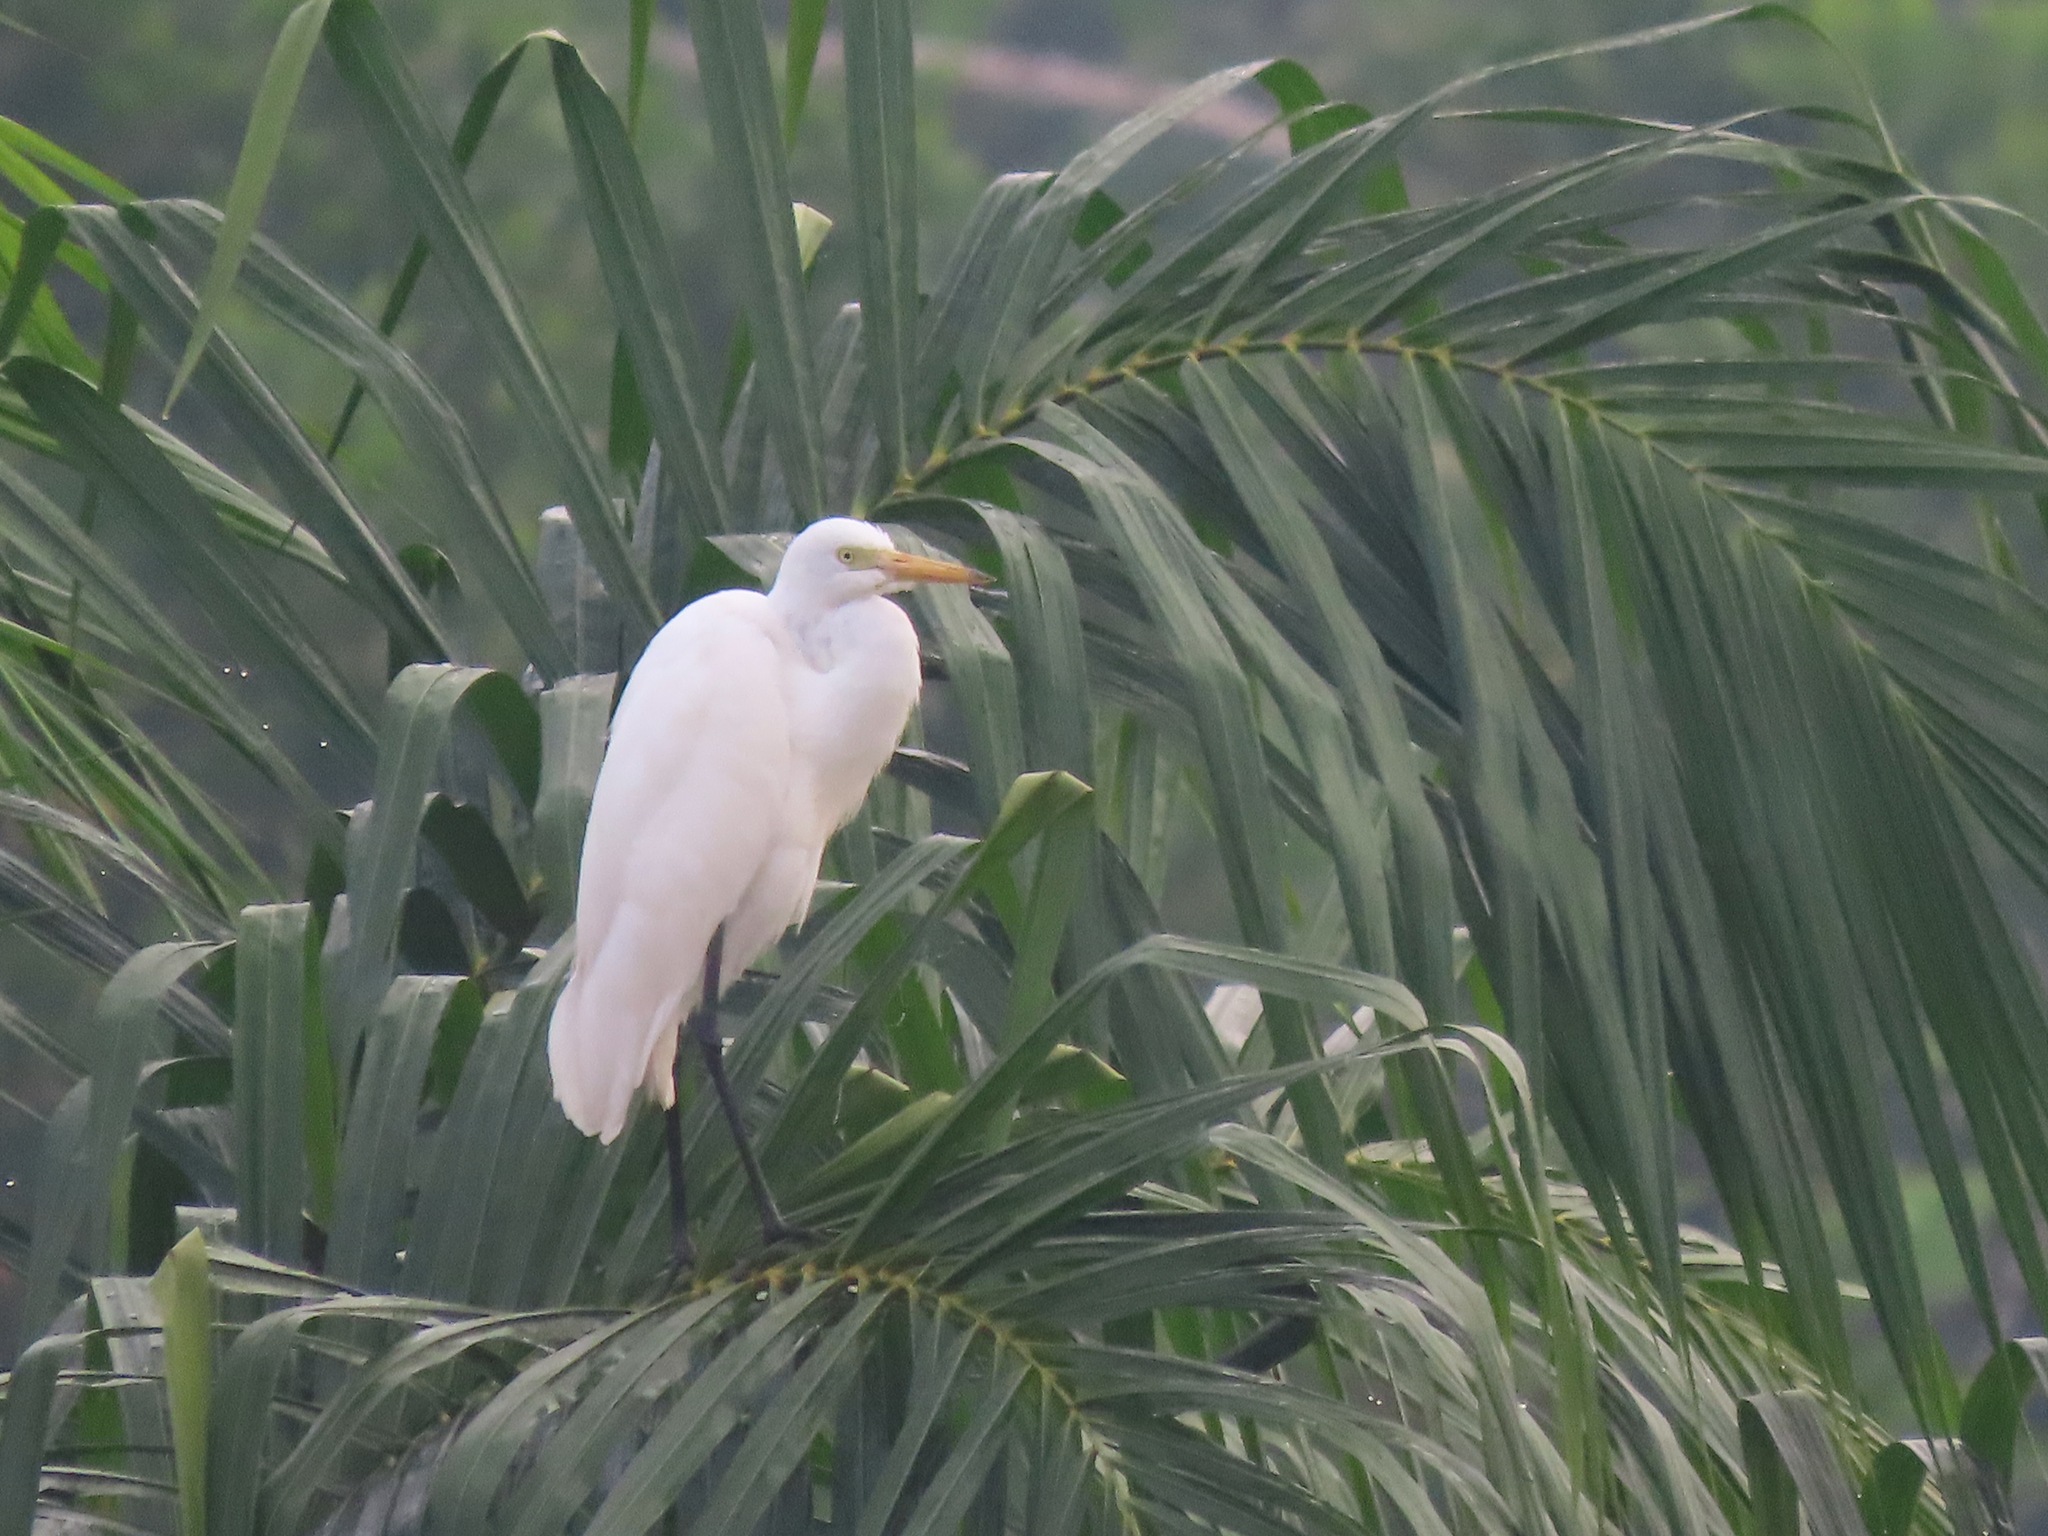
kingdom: Animalia
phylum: Chordata
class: Aves
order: Pelecaniformes
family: Ardeidae
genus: Egretta
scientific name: Egretta intermedia
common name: Intermediate egret
